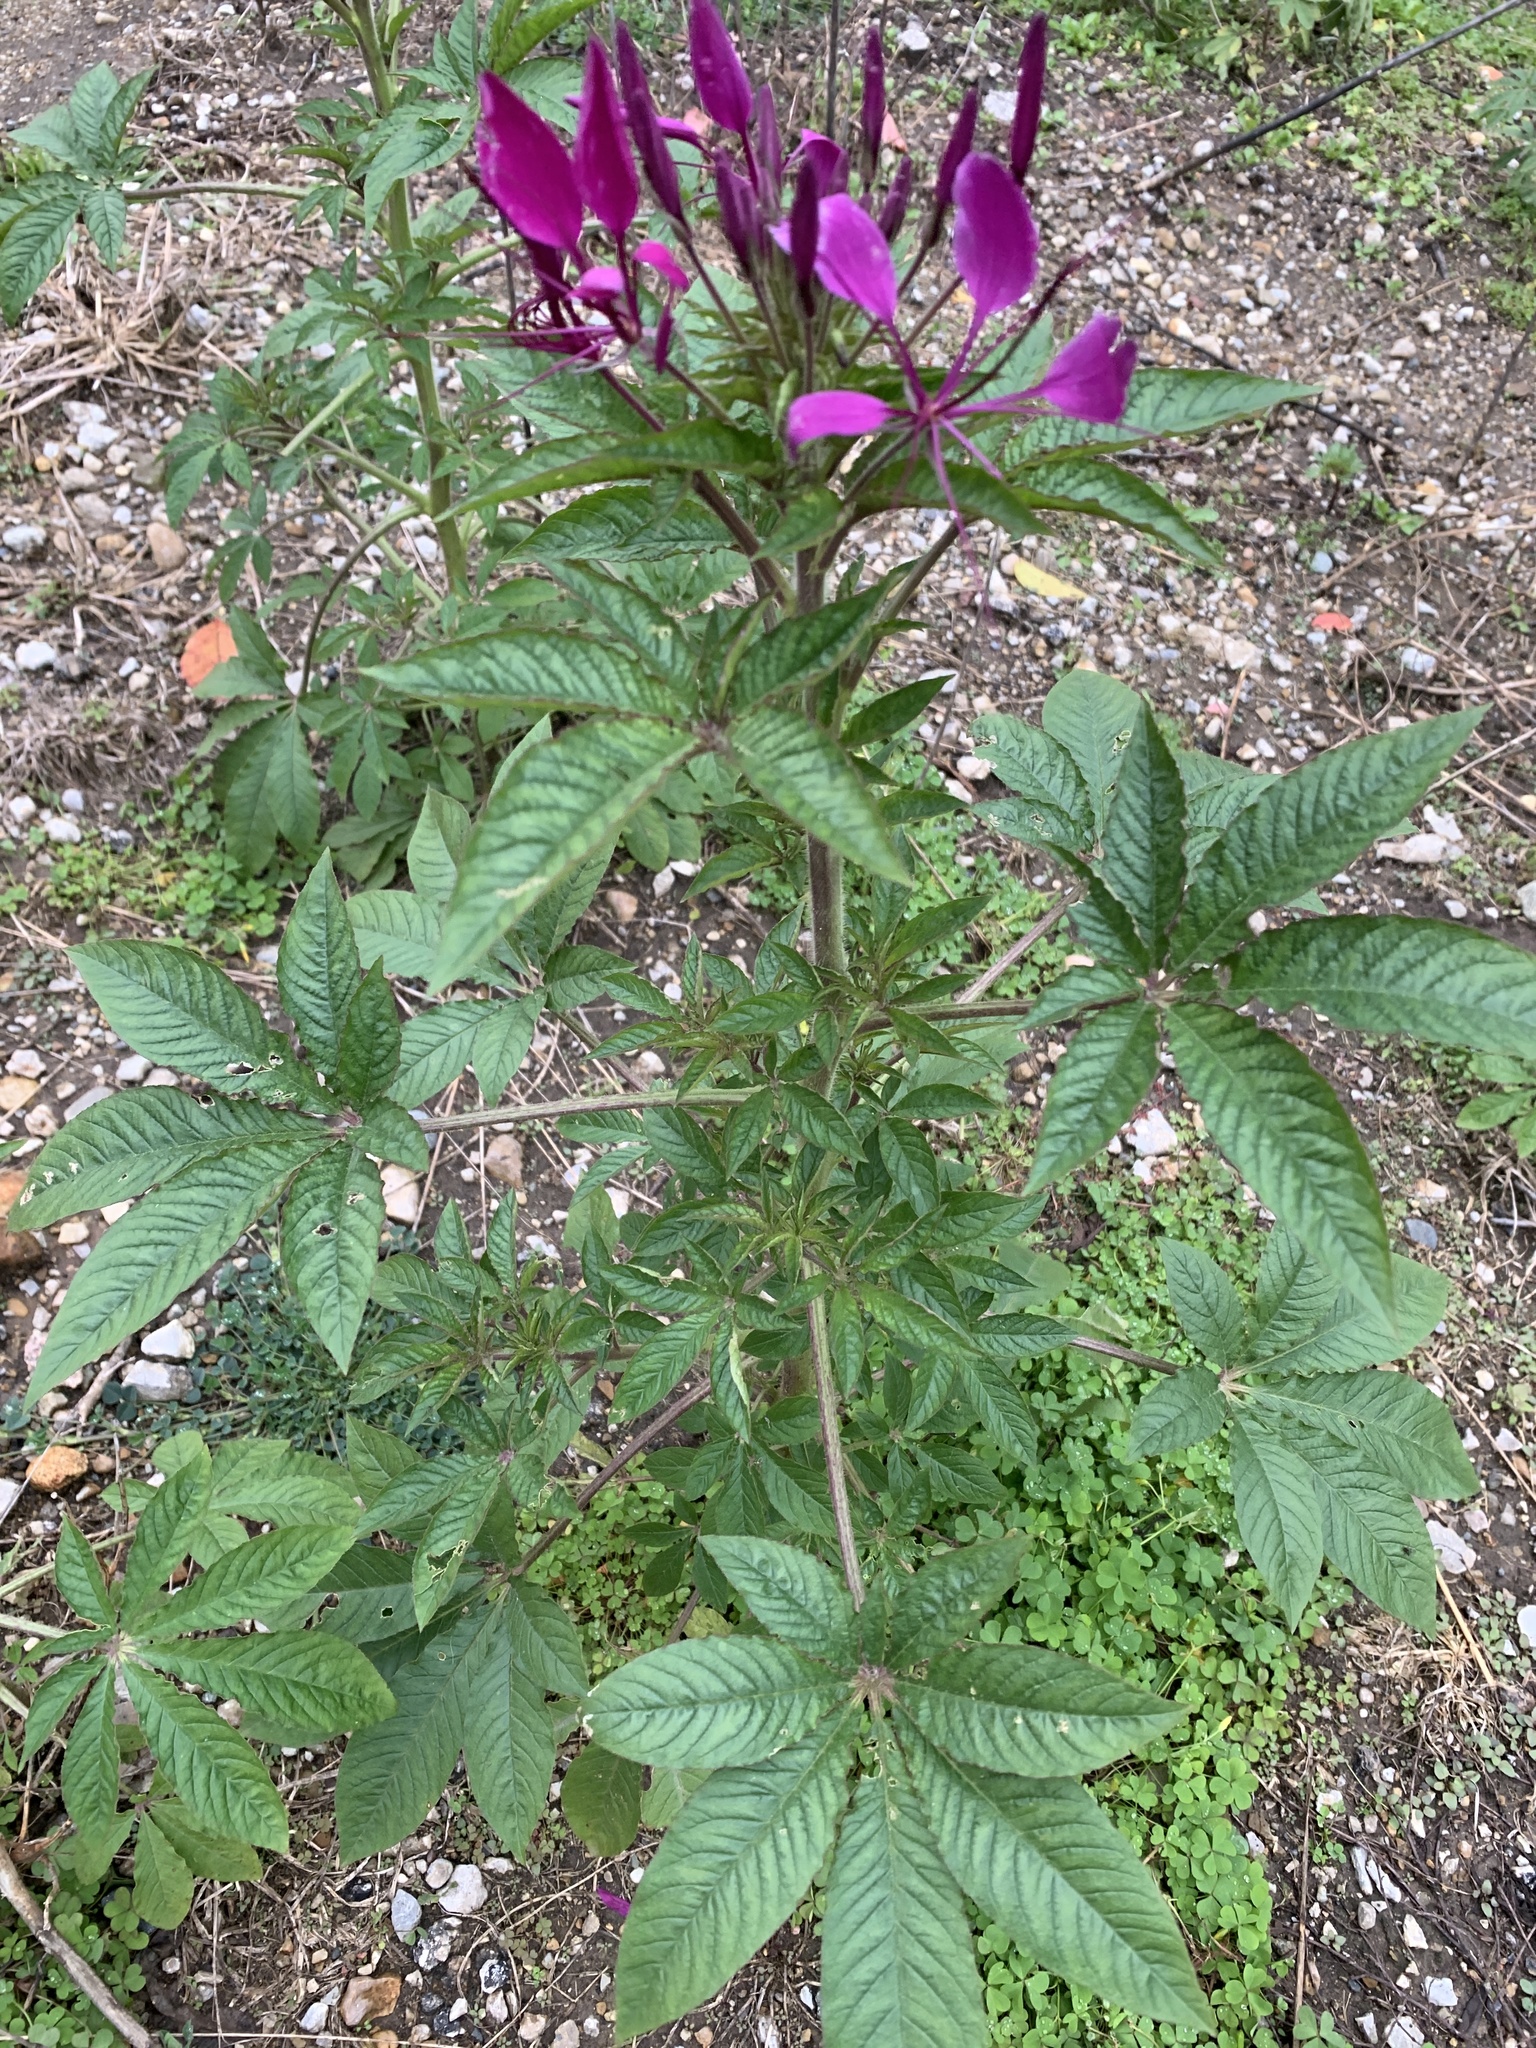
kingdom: Plantae
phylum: Tracheophyta
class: Magnoliopsida
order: Brassicales
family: Cleomaceae
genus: Tarenaya
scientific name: Tarenaya houtteana
